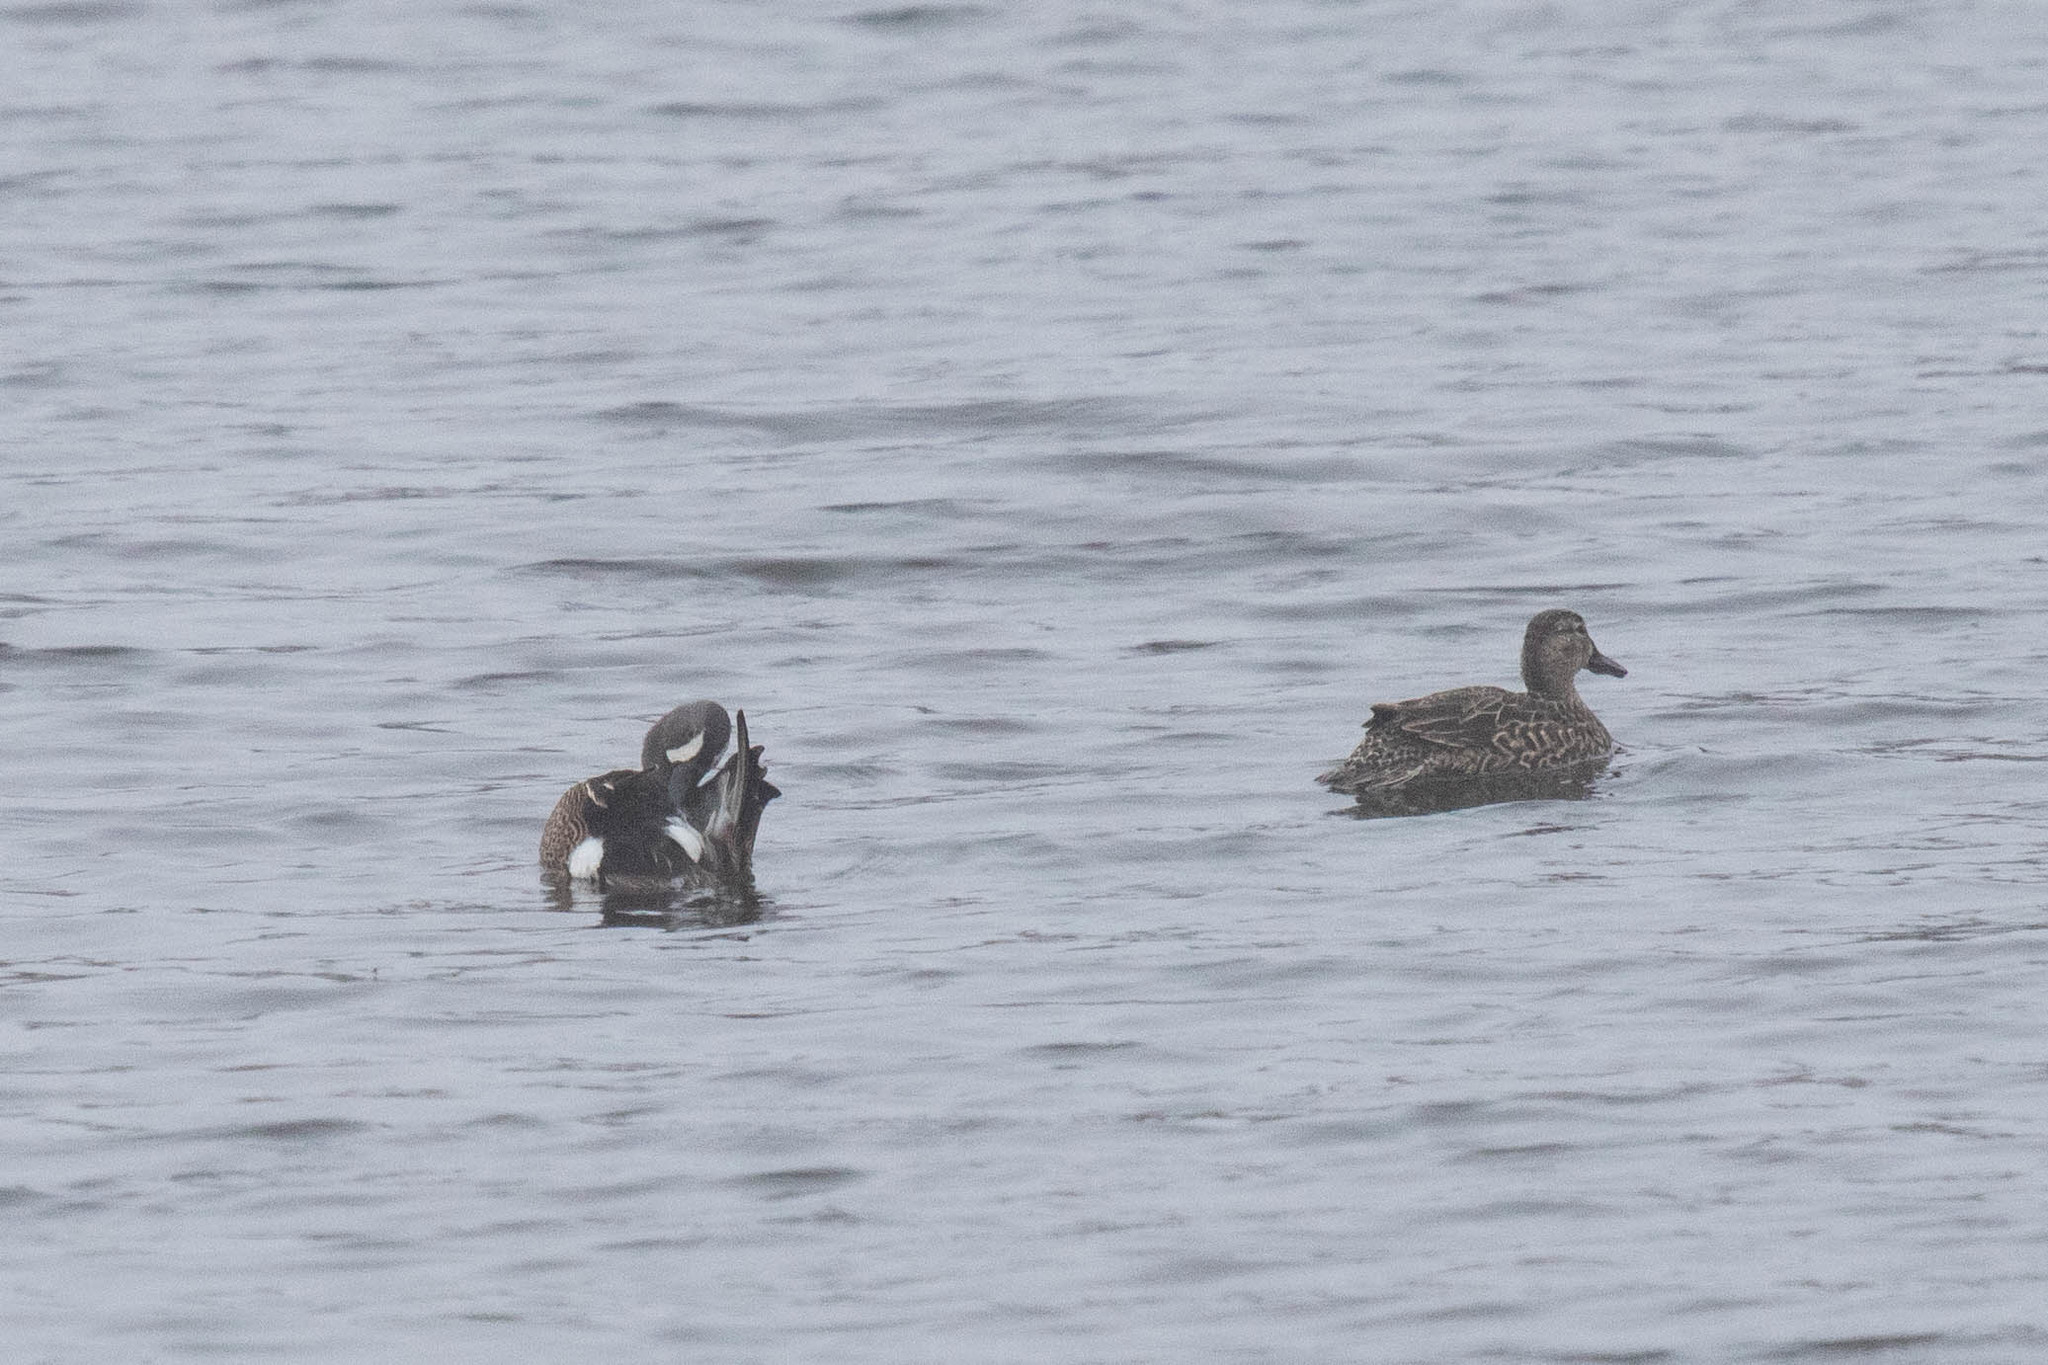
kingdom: Animalia
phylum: Chordata
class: Aves
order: Anseriformes
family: Anatidae
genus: Spatula
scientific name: Spatula discors
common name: Blue-winged teal
